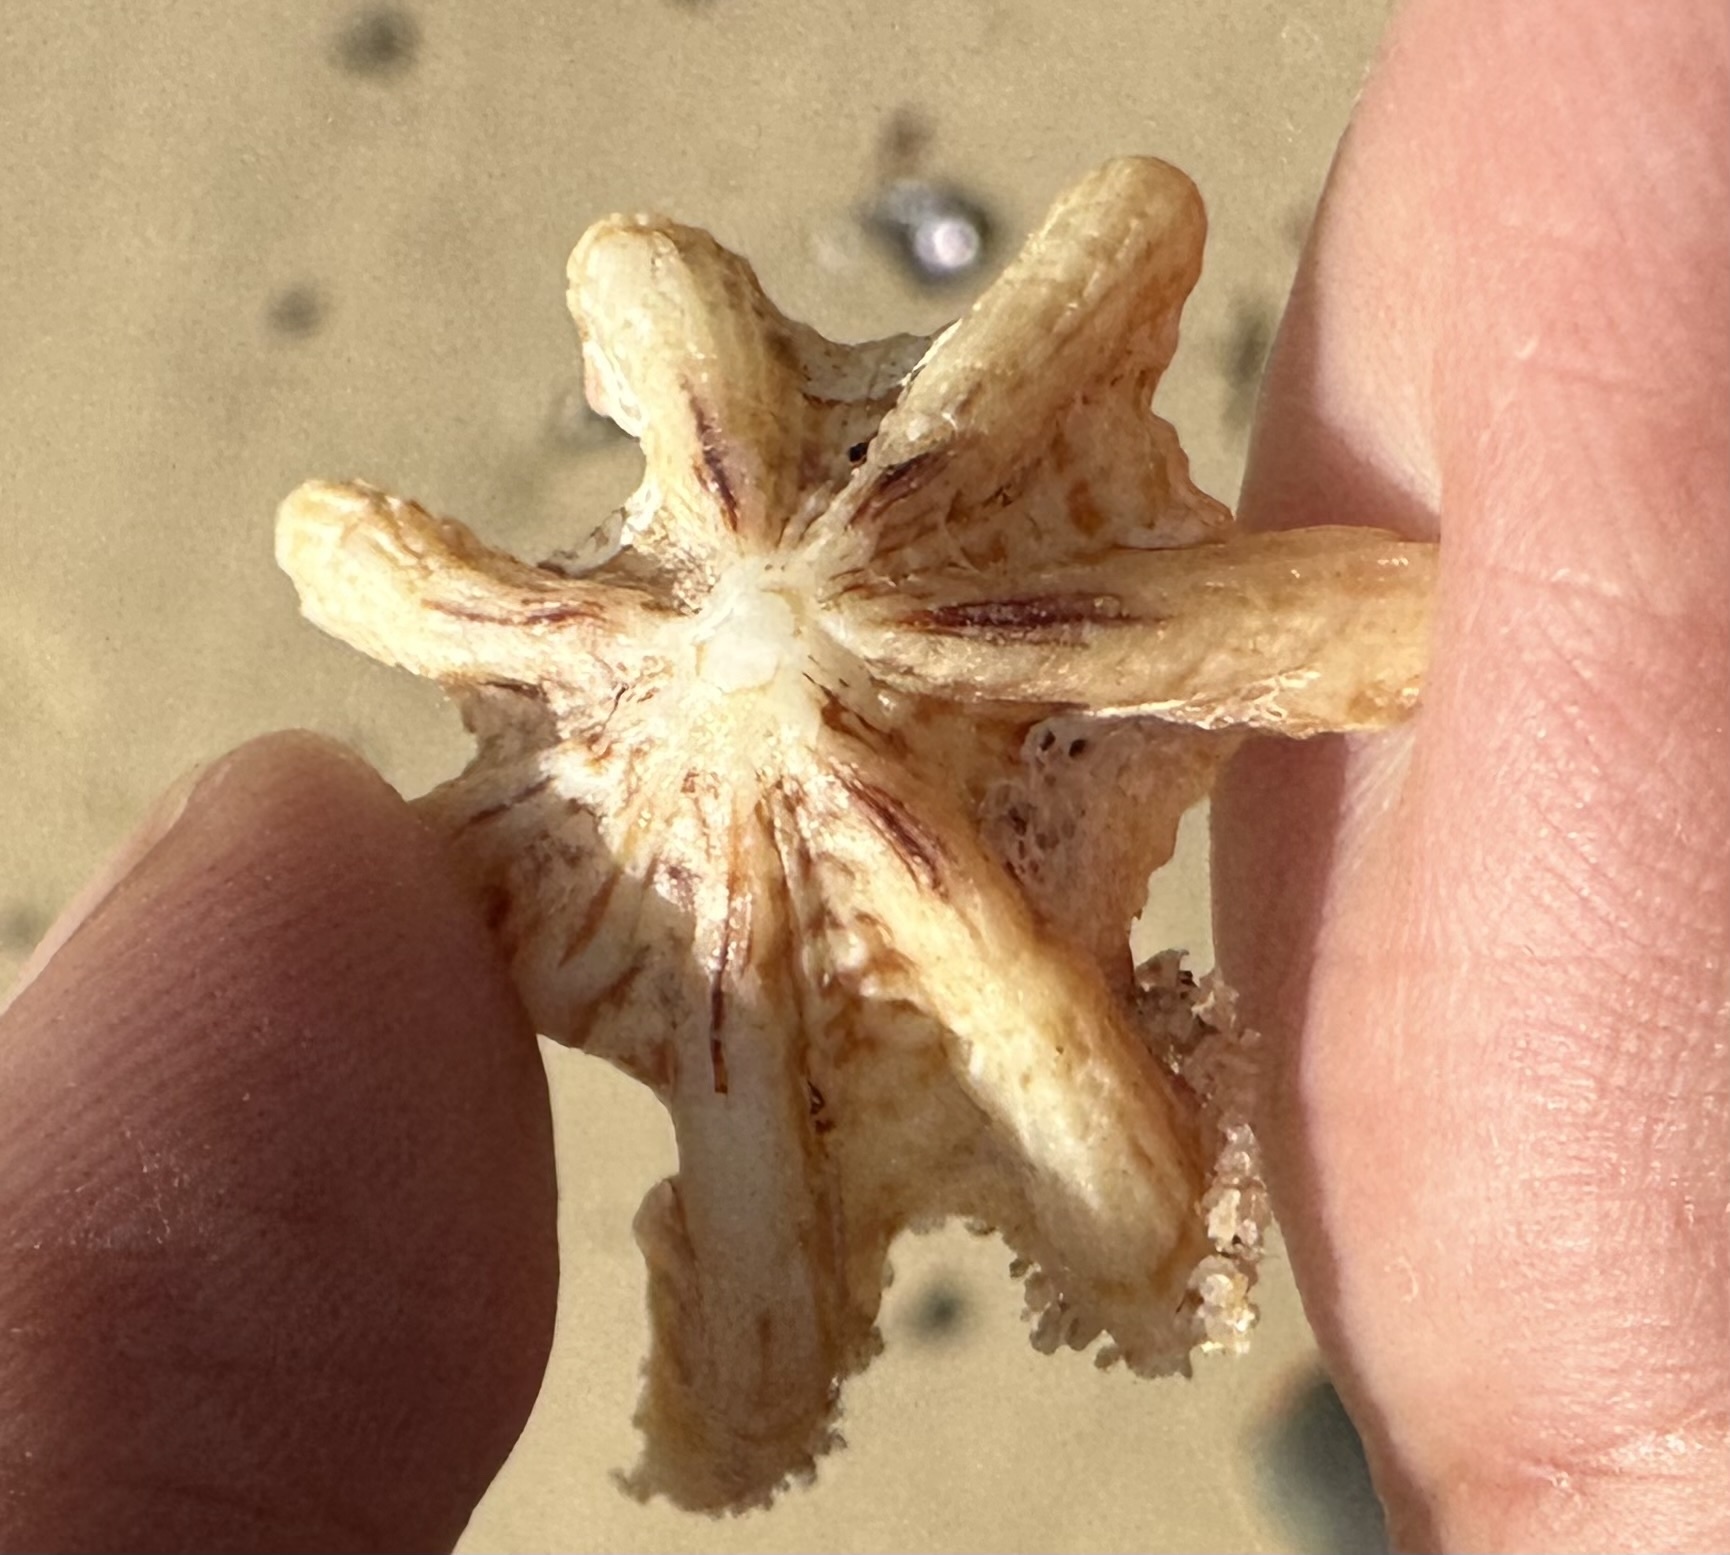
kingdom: Animalia
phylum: Mollusca
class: Gastropoda
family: Patellidae
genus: Scutellastra
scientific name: Scutellastra chapmani
